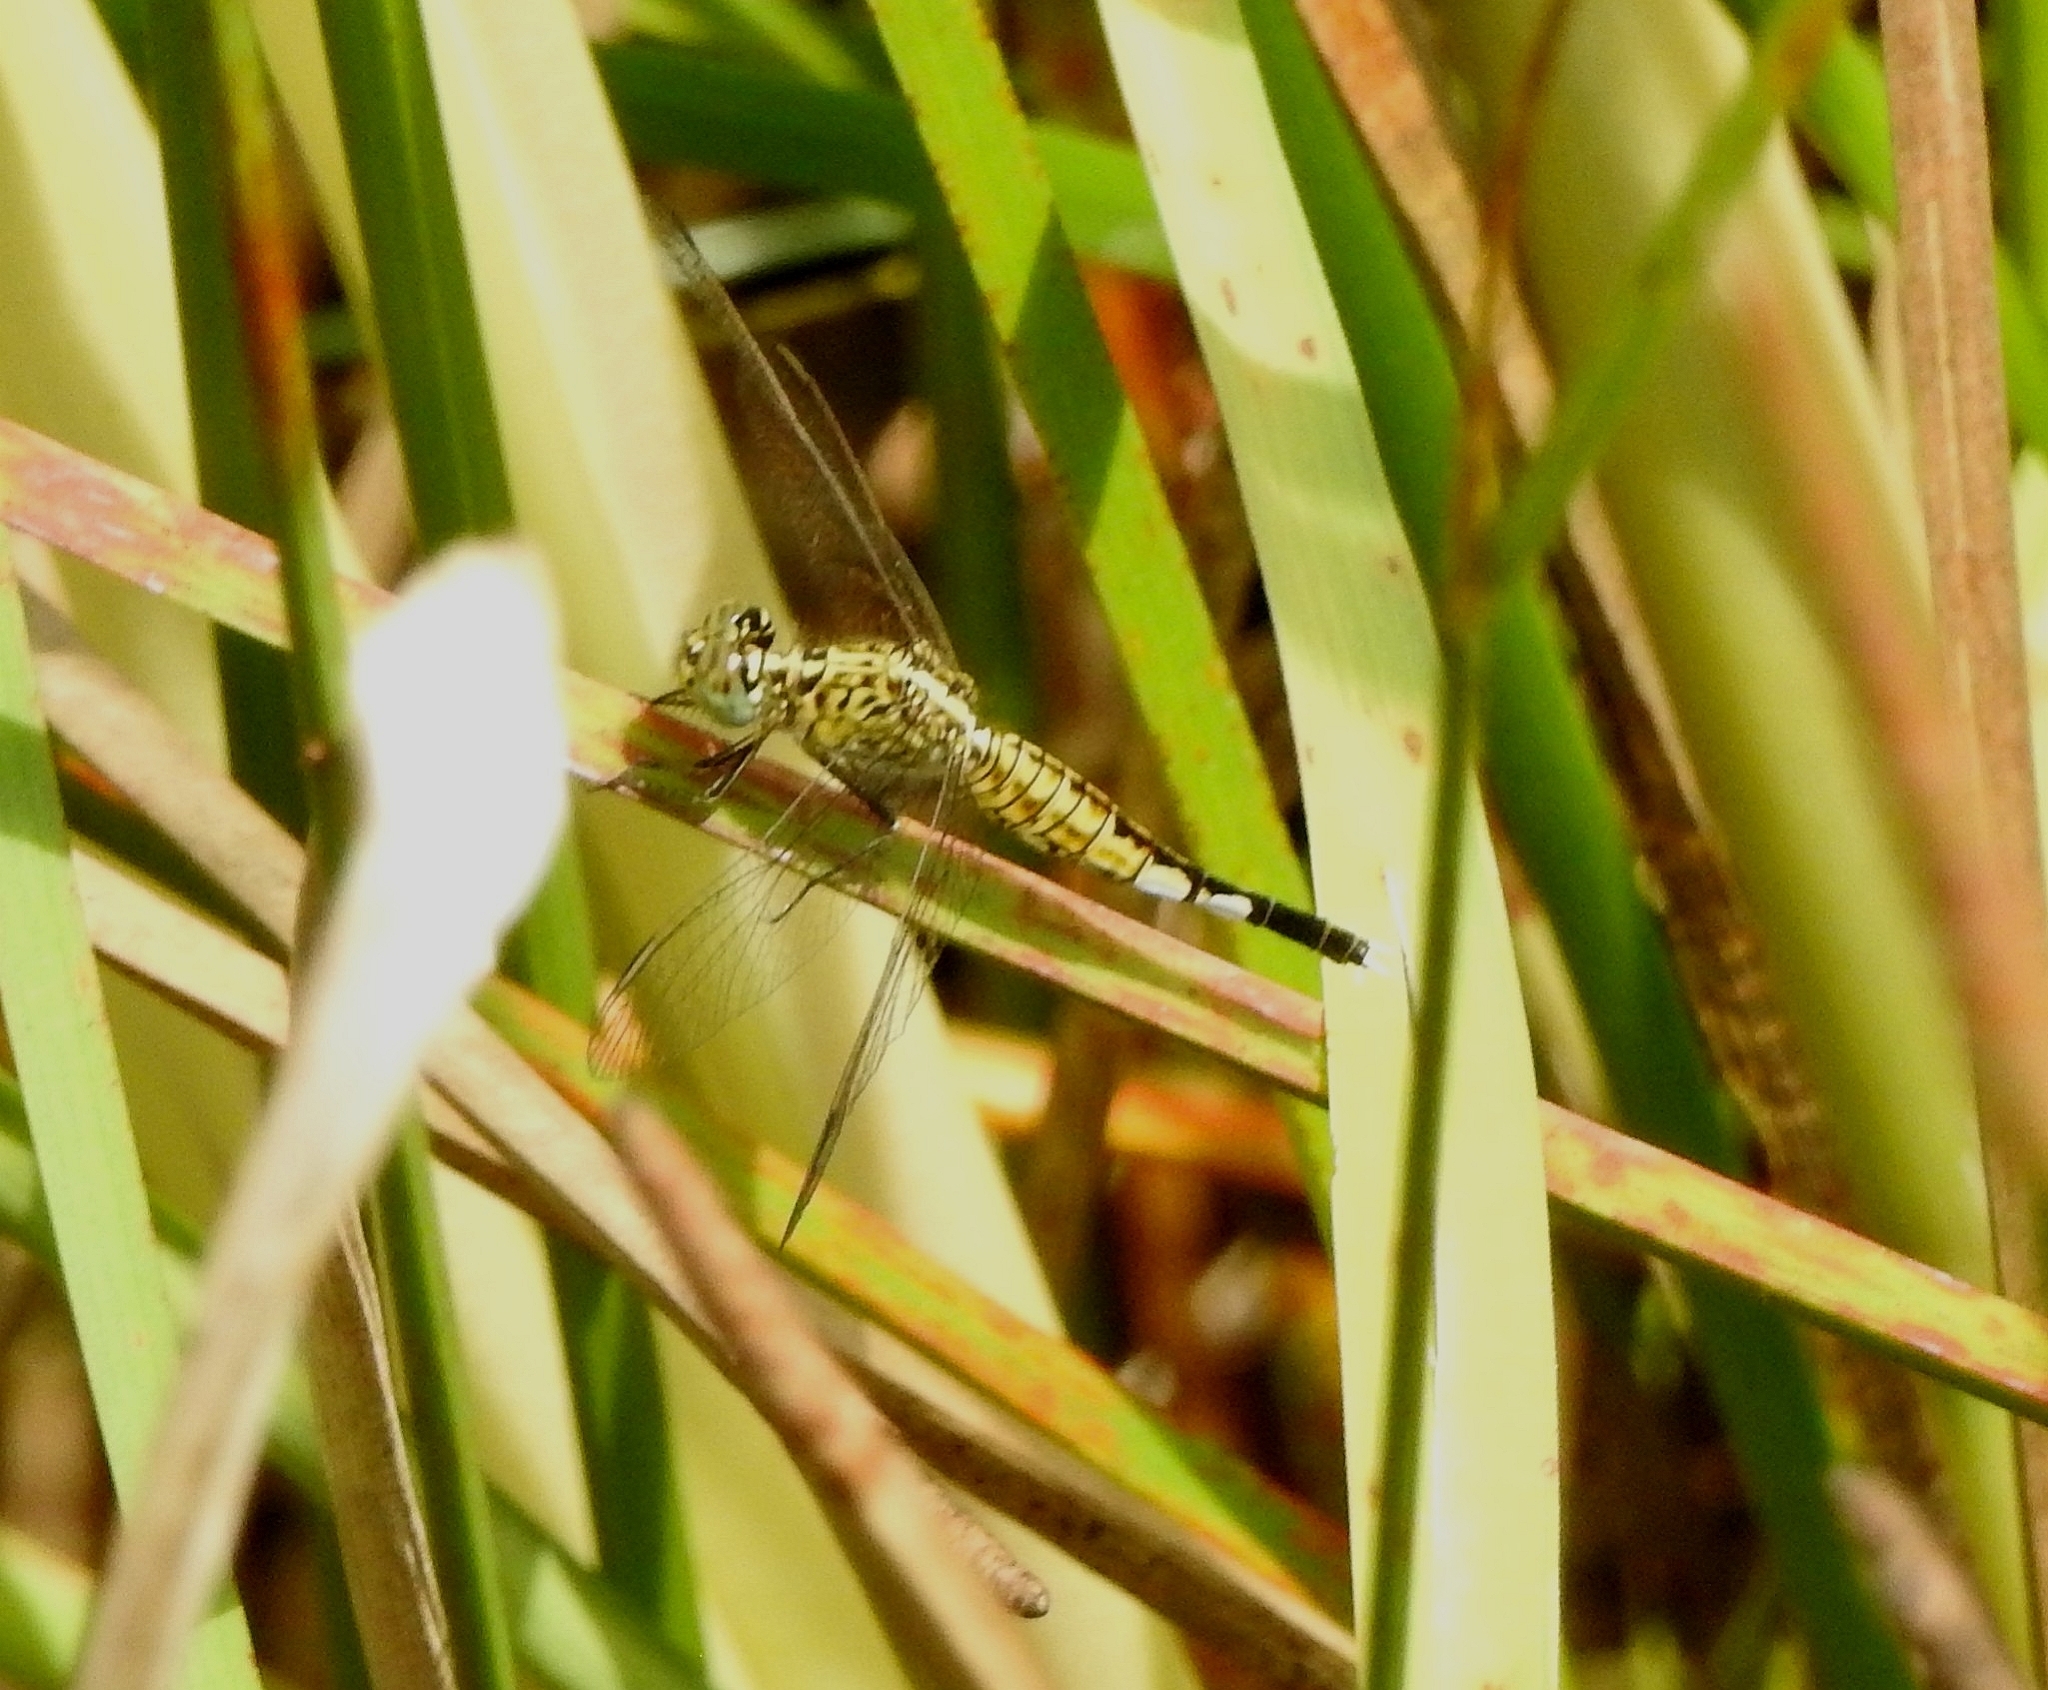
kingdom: Animalia
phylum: Arthropoda
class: Insecta
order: Odonata
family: Libellulidae
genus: Acisoma
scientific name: Acisoma panorpoides
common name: Asian pintail
